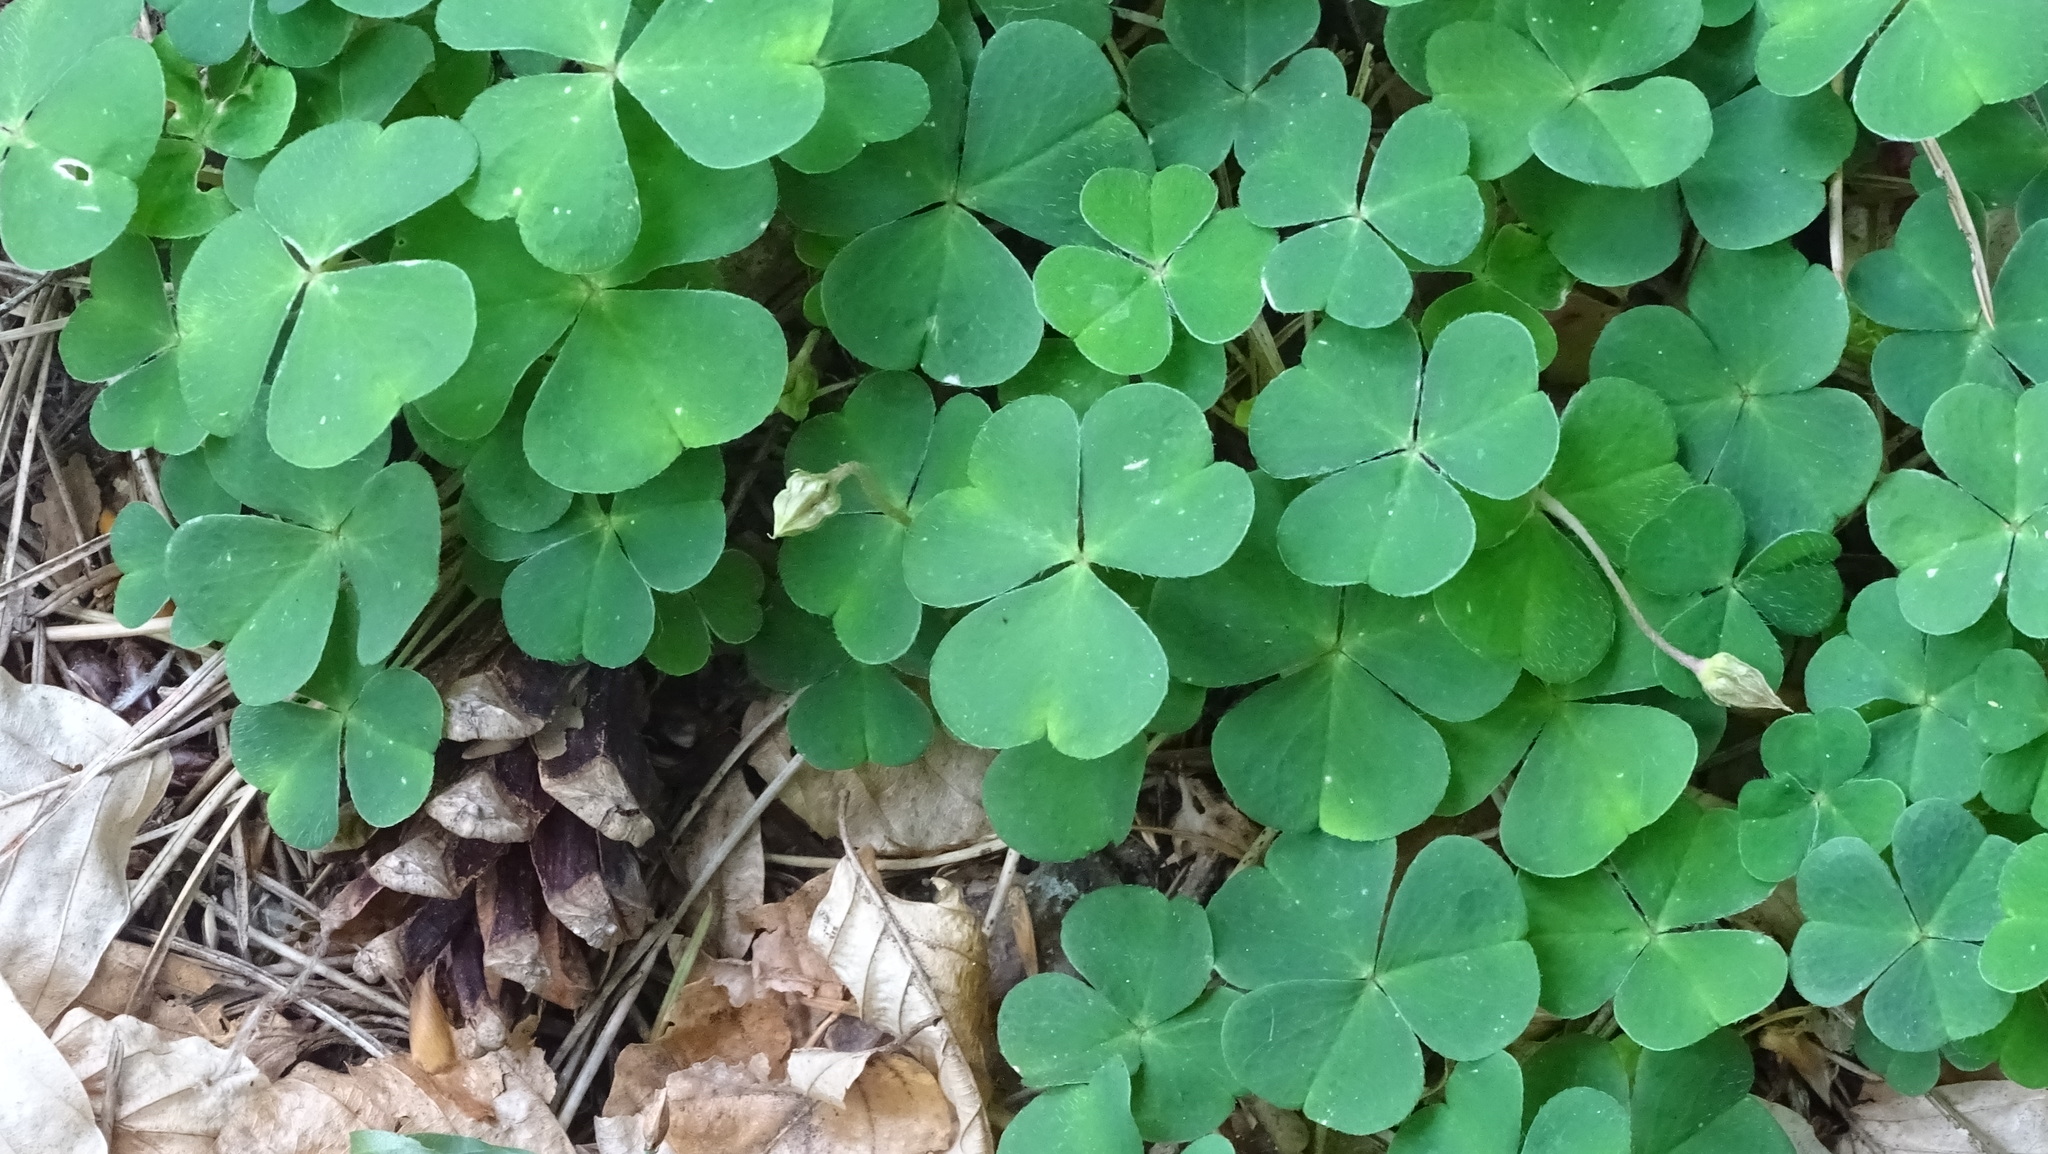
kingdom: Plantae
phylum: Tracheophyta
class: Magnoliopsida
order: Oxalidales
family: Oxalidaceae
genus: Oxalis
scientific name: Oxalis acetosella
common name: Wood-sorrel
